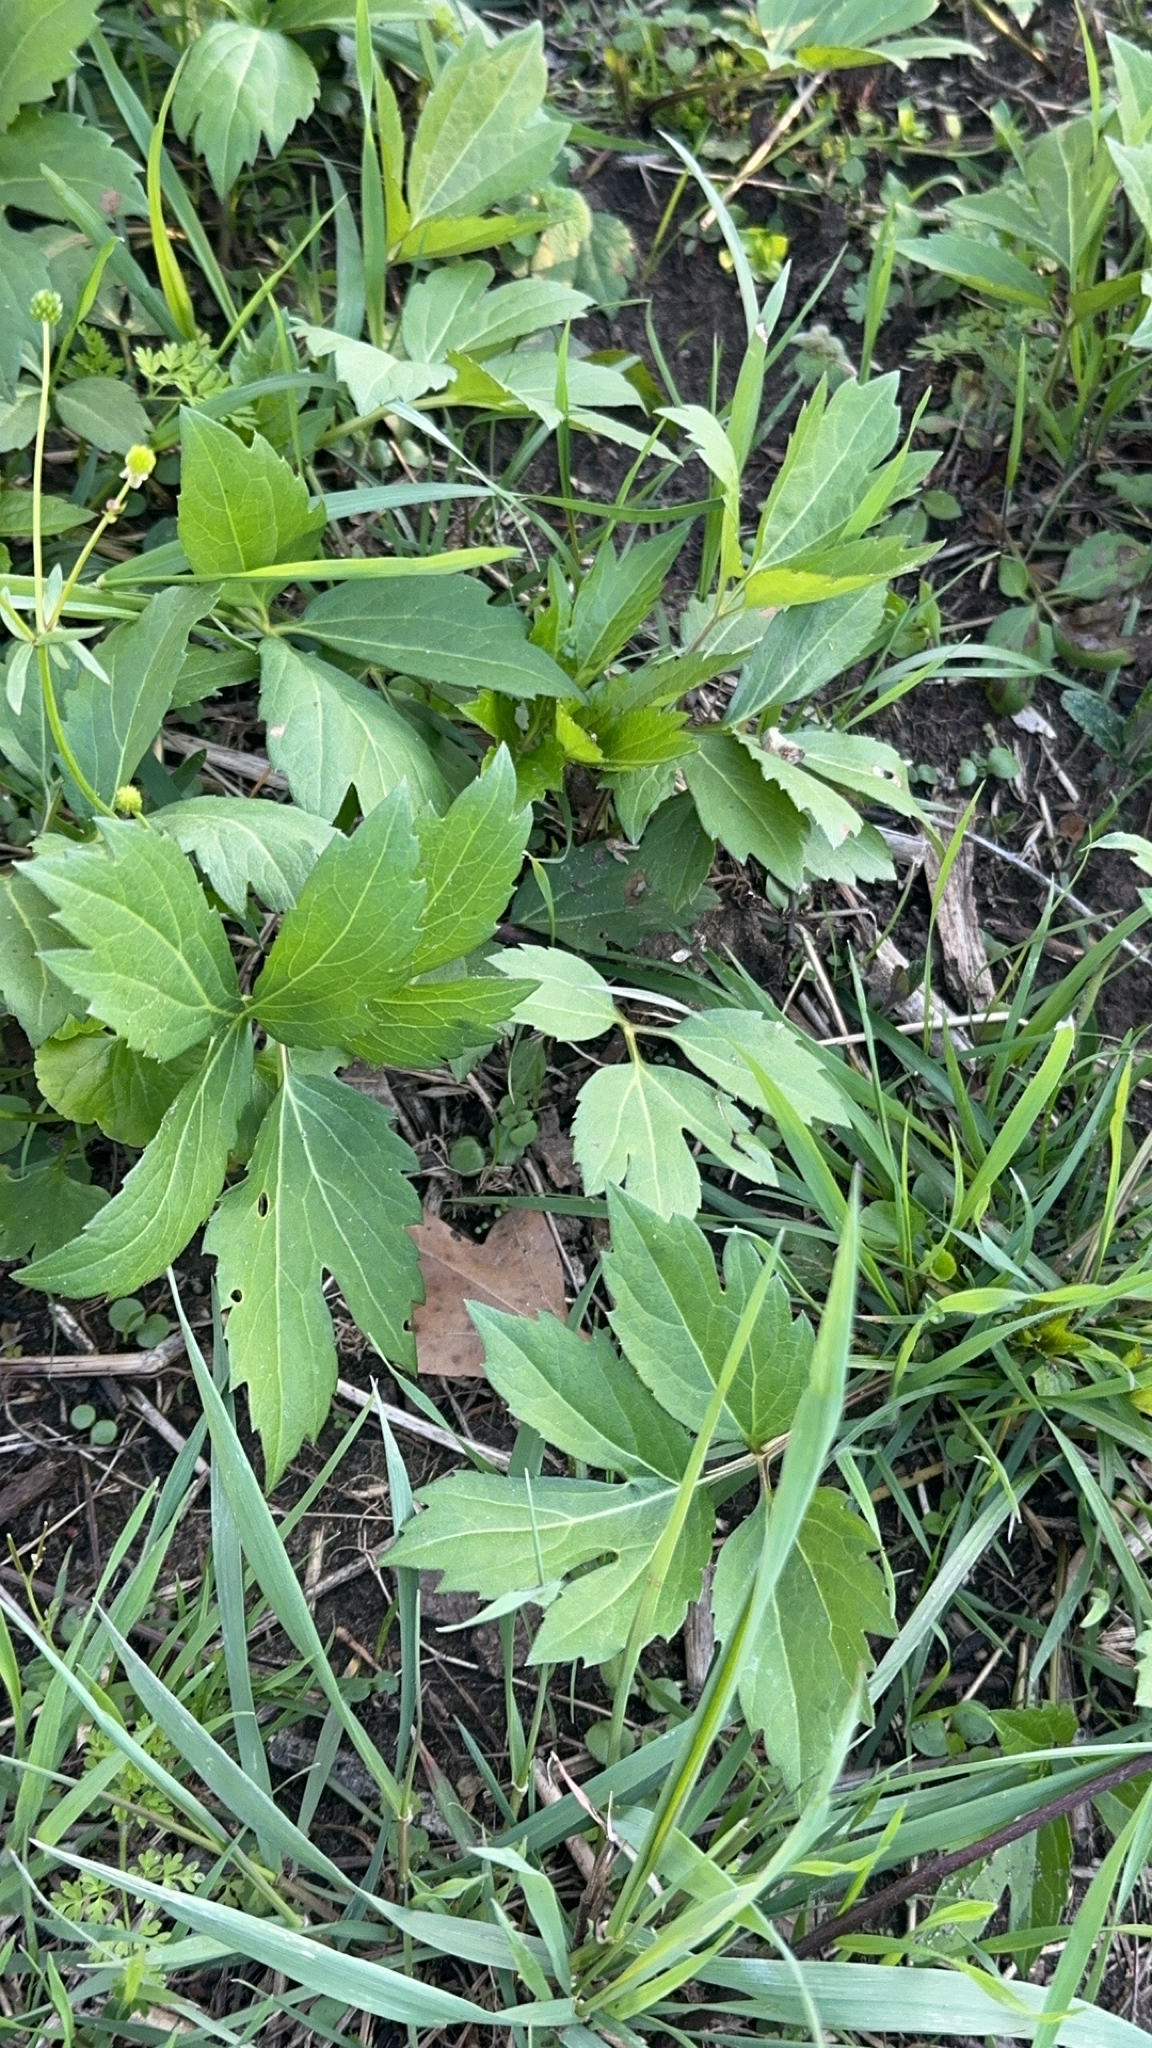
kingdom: Plantae
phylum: Tracheophyta
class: Magnoliopsida
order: Asterales
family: Asteraceae
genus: Rudbeckia
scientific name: Rudbeckia laciniata
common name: Coneflower
